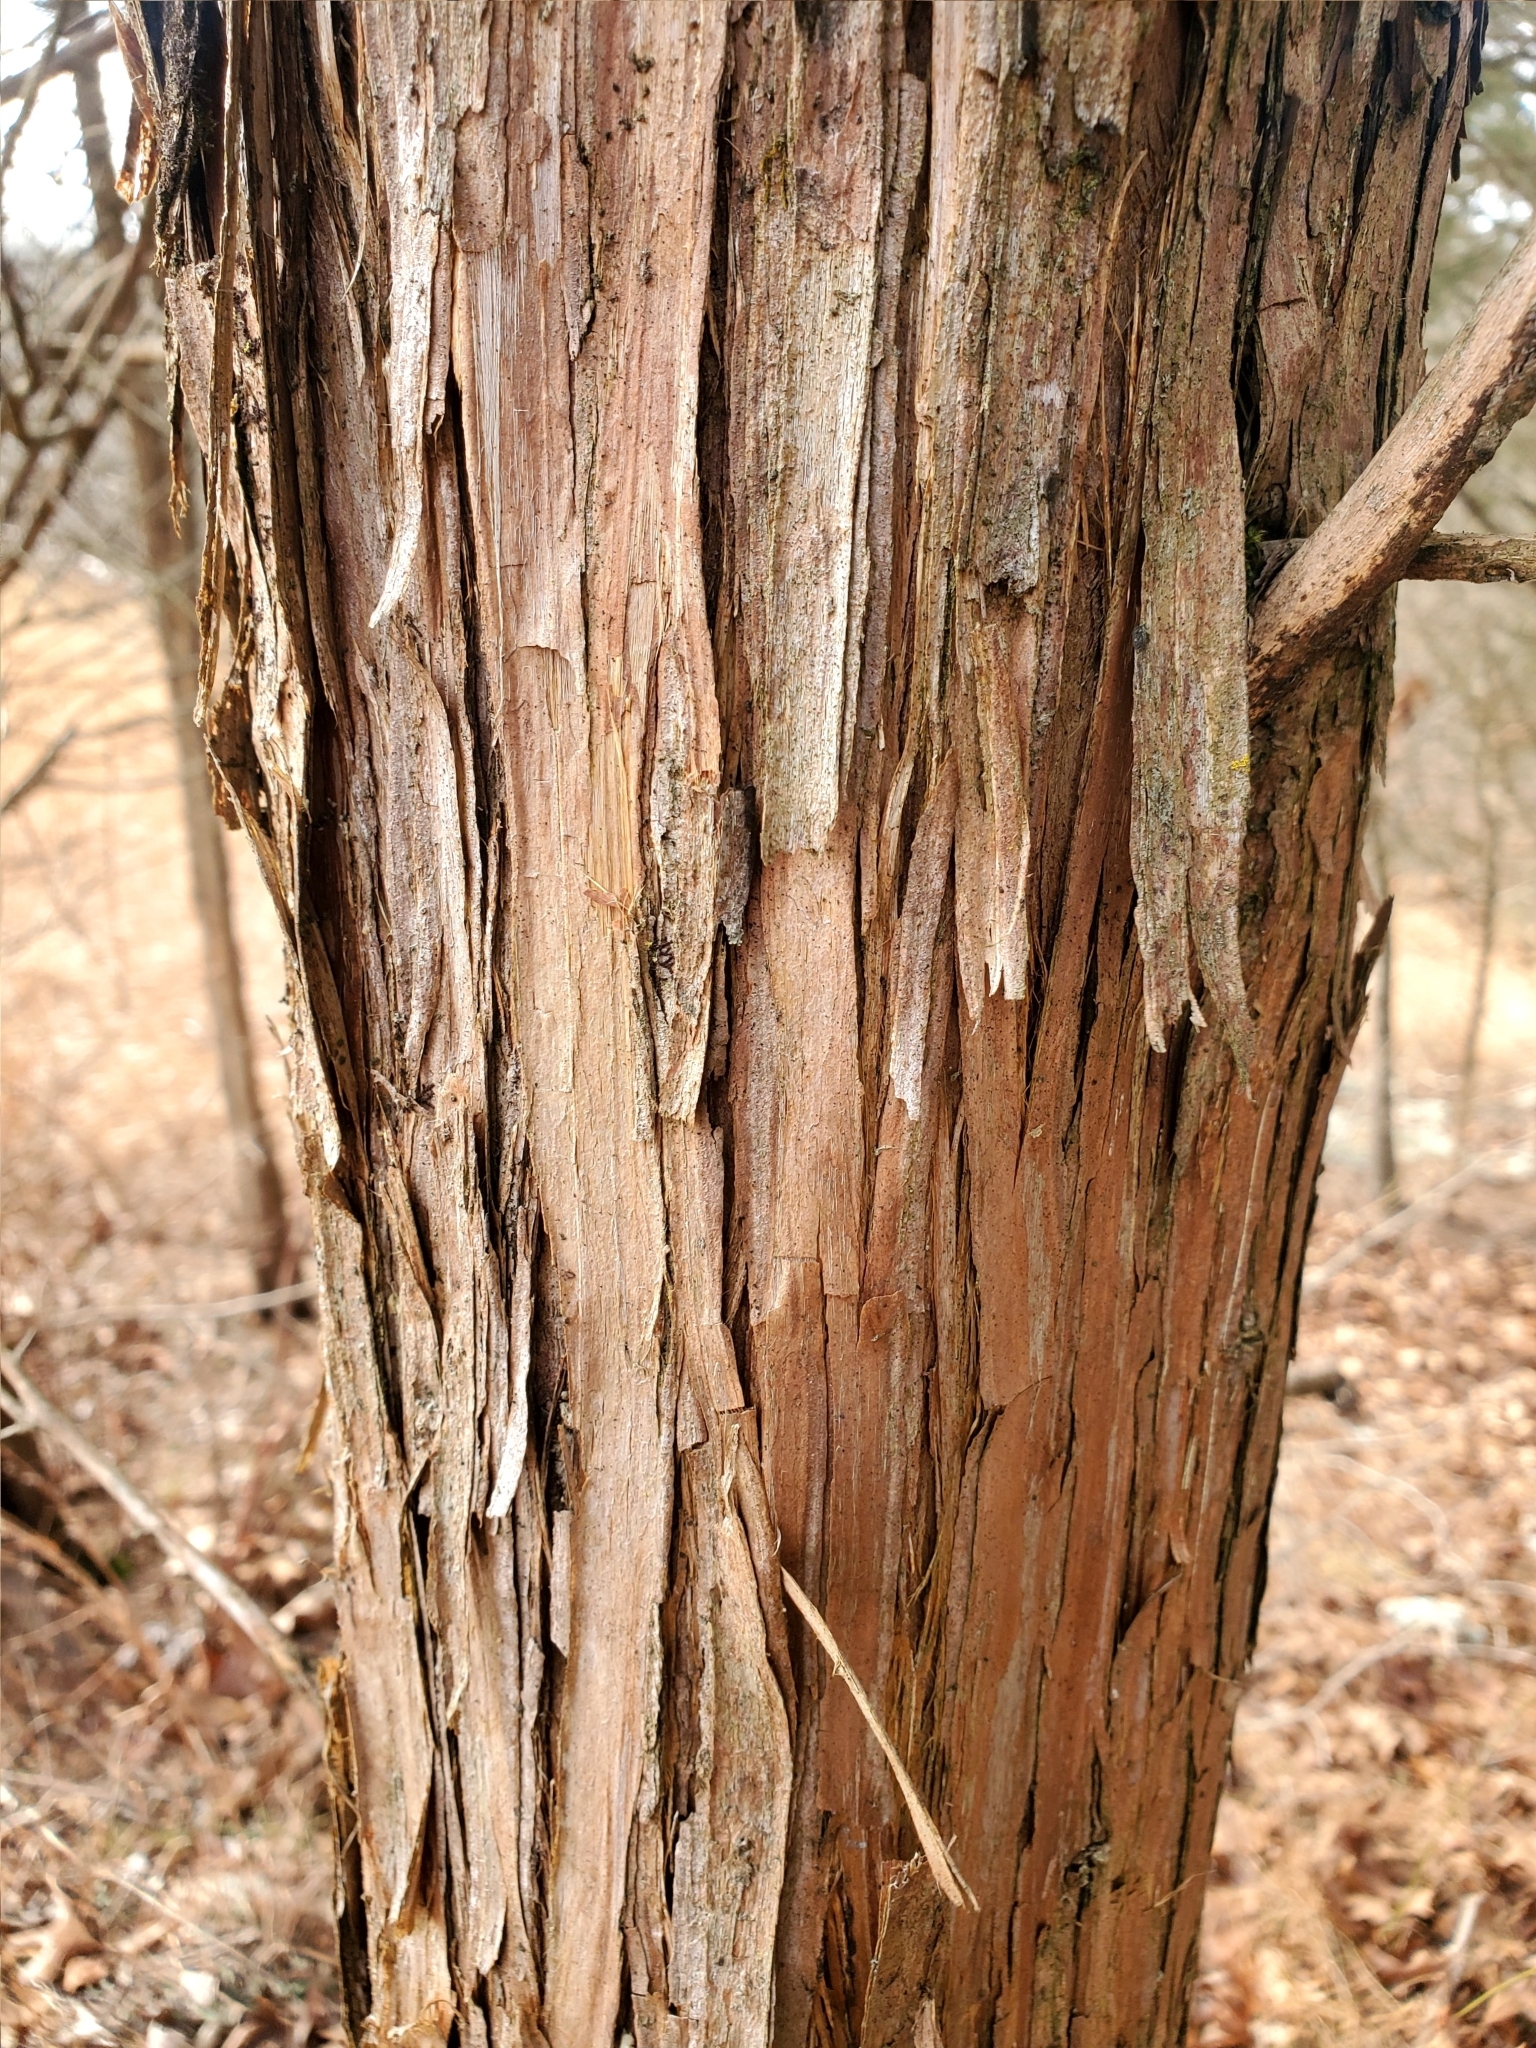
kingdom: Plantae
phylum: Tracheophyta
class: Pinopsida
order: Pinales
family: Cupressaceae
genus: Juniperus
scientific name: Juniperus virginiana
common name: Red juniper
